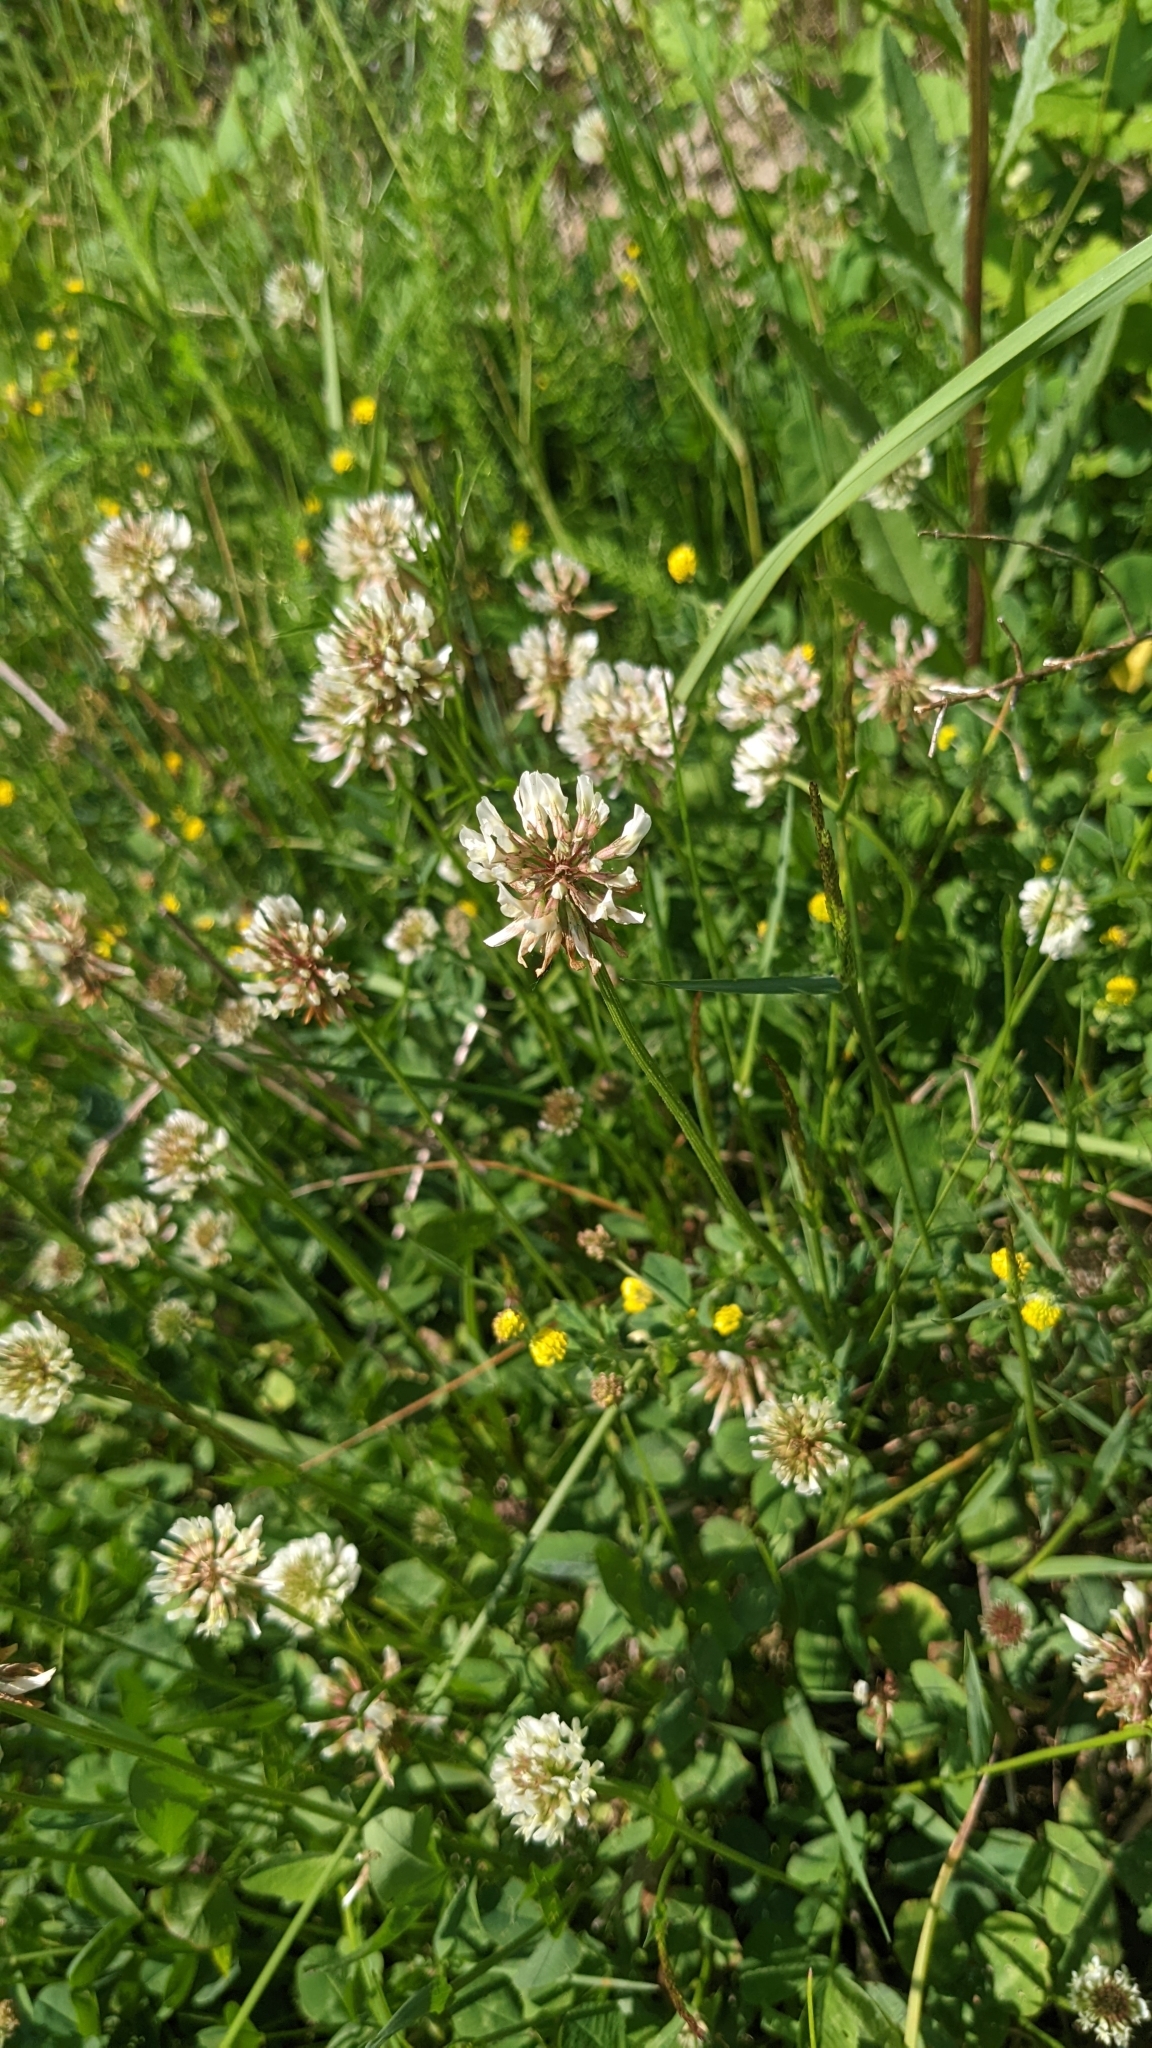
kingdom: Plantae
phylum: Tracheophyta
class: Magnoliopsida
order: Fabales
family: Fabaceae
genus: Trifolium
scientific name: Trifolium repens
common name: White clover
